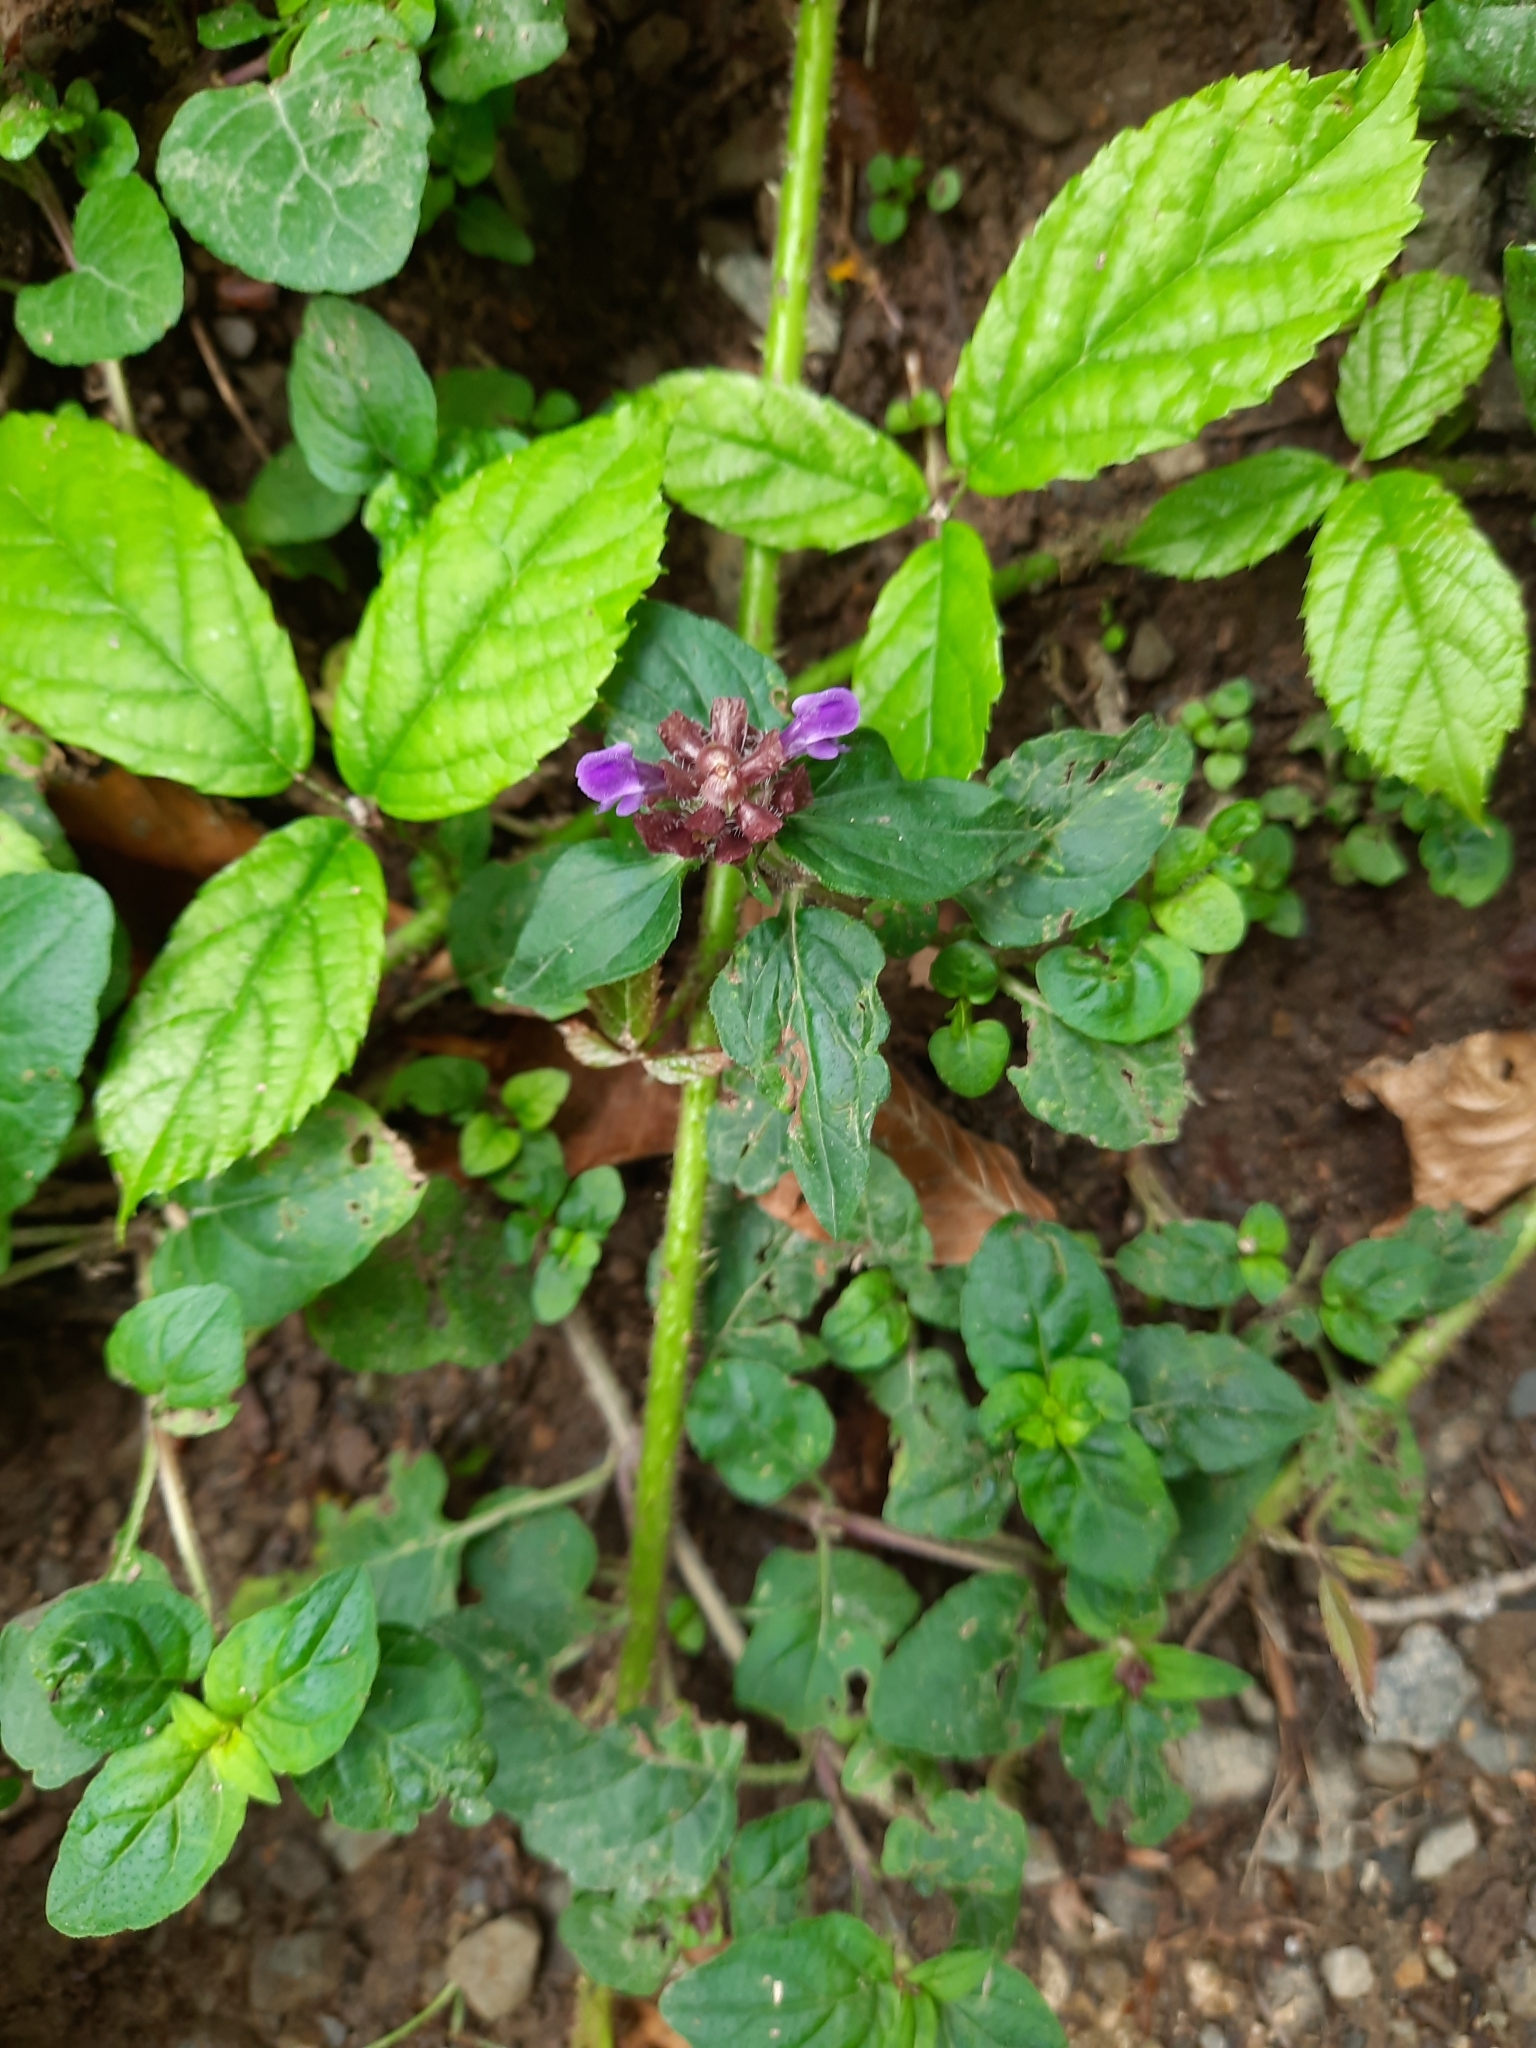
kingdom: Plantae
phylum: Tracheophyta
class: Magnoliopsida
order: Lamiales
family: Lamiaceae
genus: Prunella
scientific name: Prunella vulgaris
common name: Heal-all
